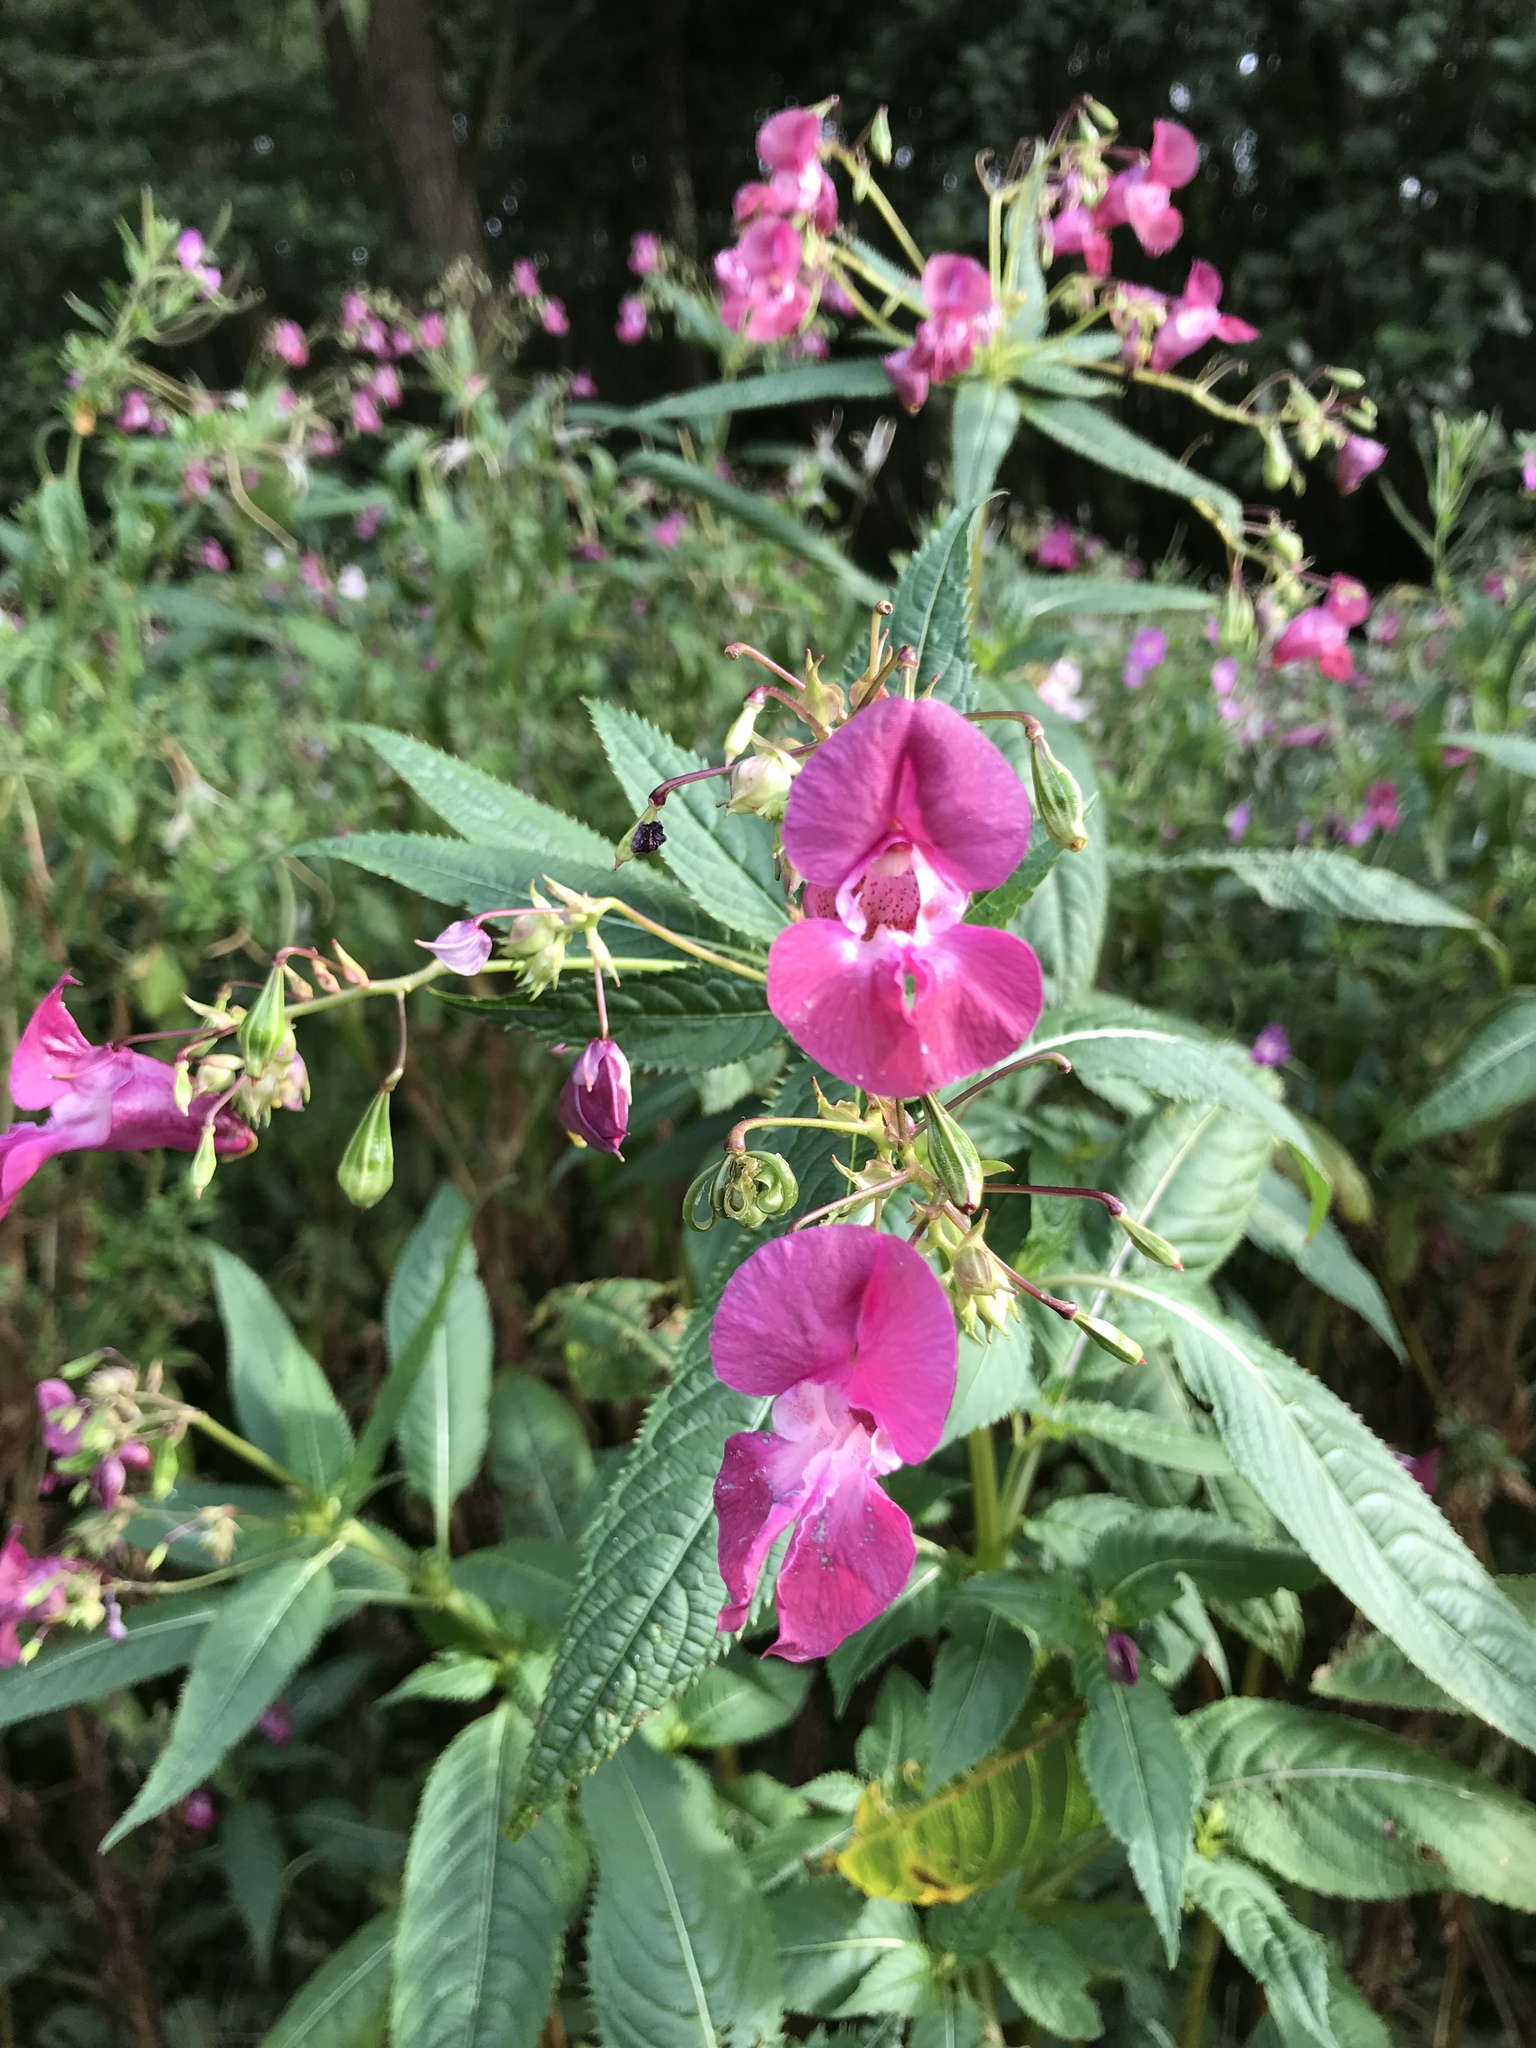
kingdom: Plantae
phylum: Tracheophyta
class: Magnoliopsida
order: Ericales
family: Balsaminaceae
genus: Impatiens
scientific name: Impatiens glandulifera
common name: Himalayan balsam
